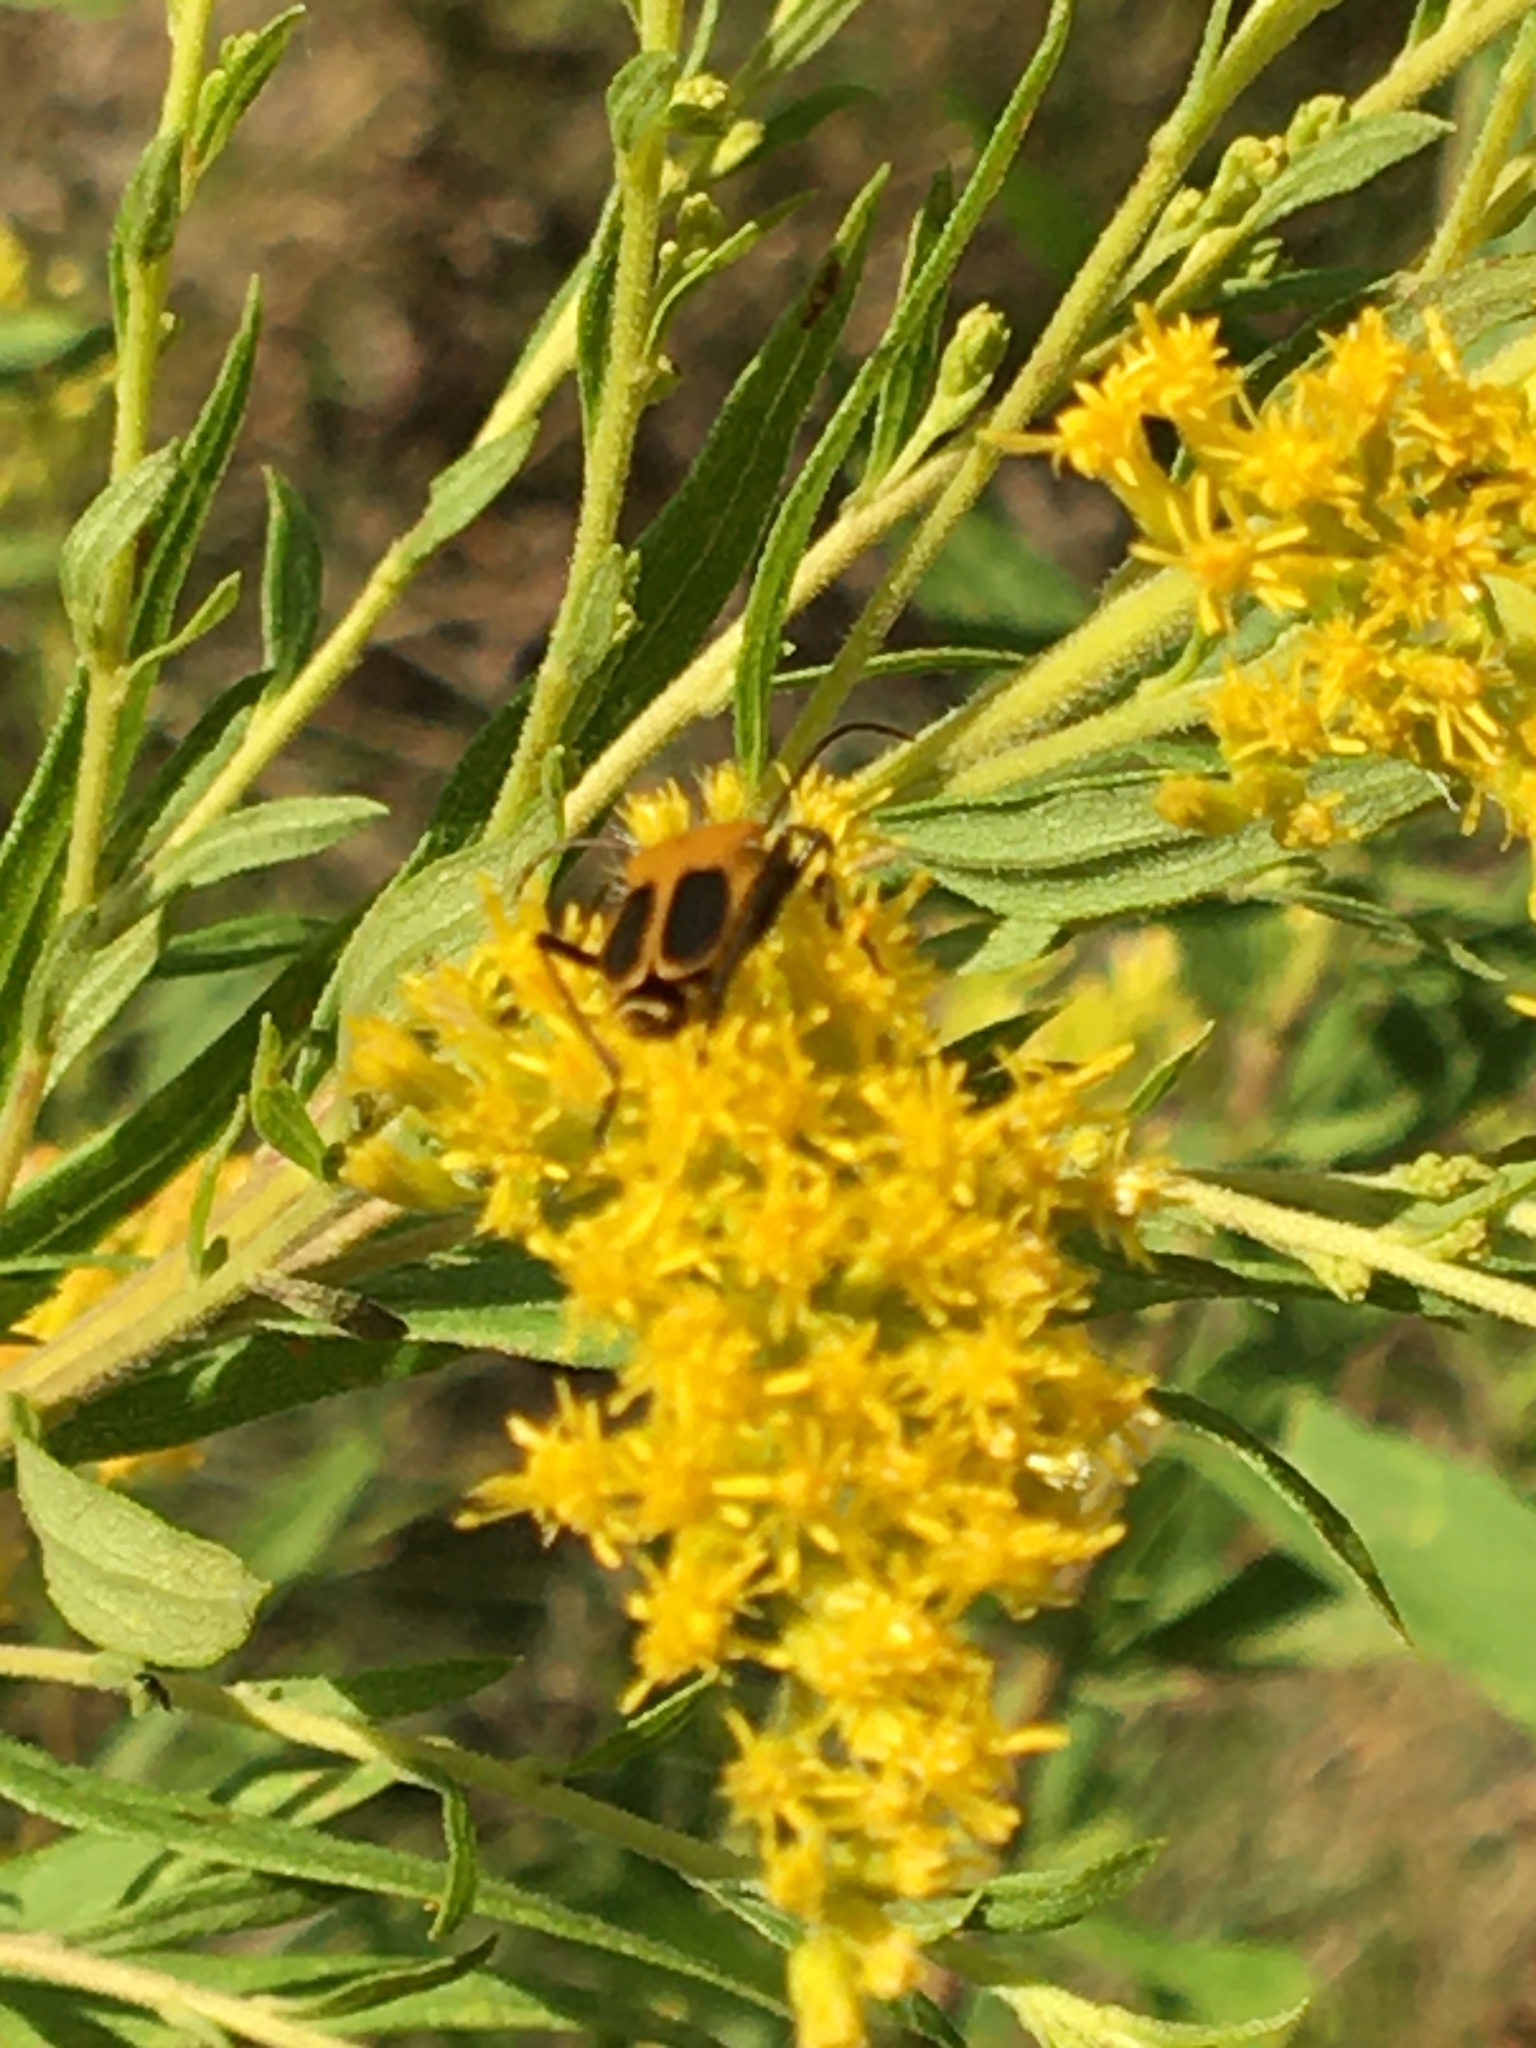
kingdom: Animalia
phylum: Arthropoda
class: Insecta
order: Coleoptera
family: Cantharidae
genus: Chauliognathus
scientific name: Chauliognathus pensylvanicus
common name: Goldenrod soldier beetle
